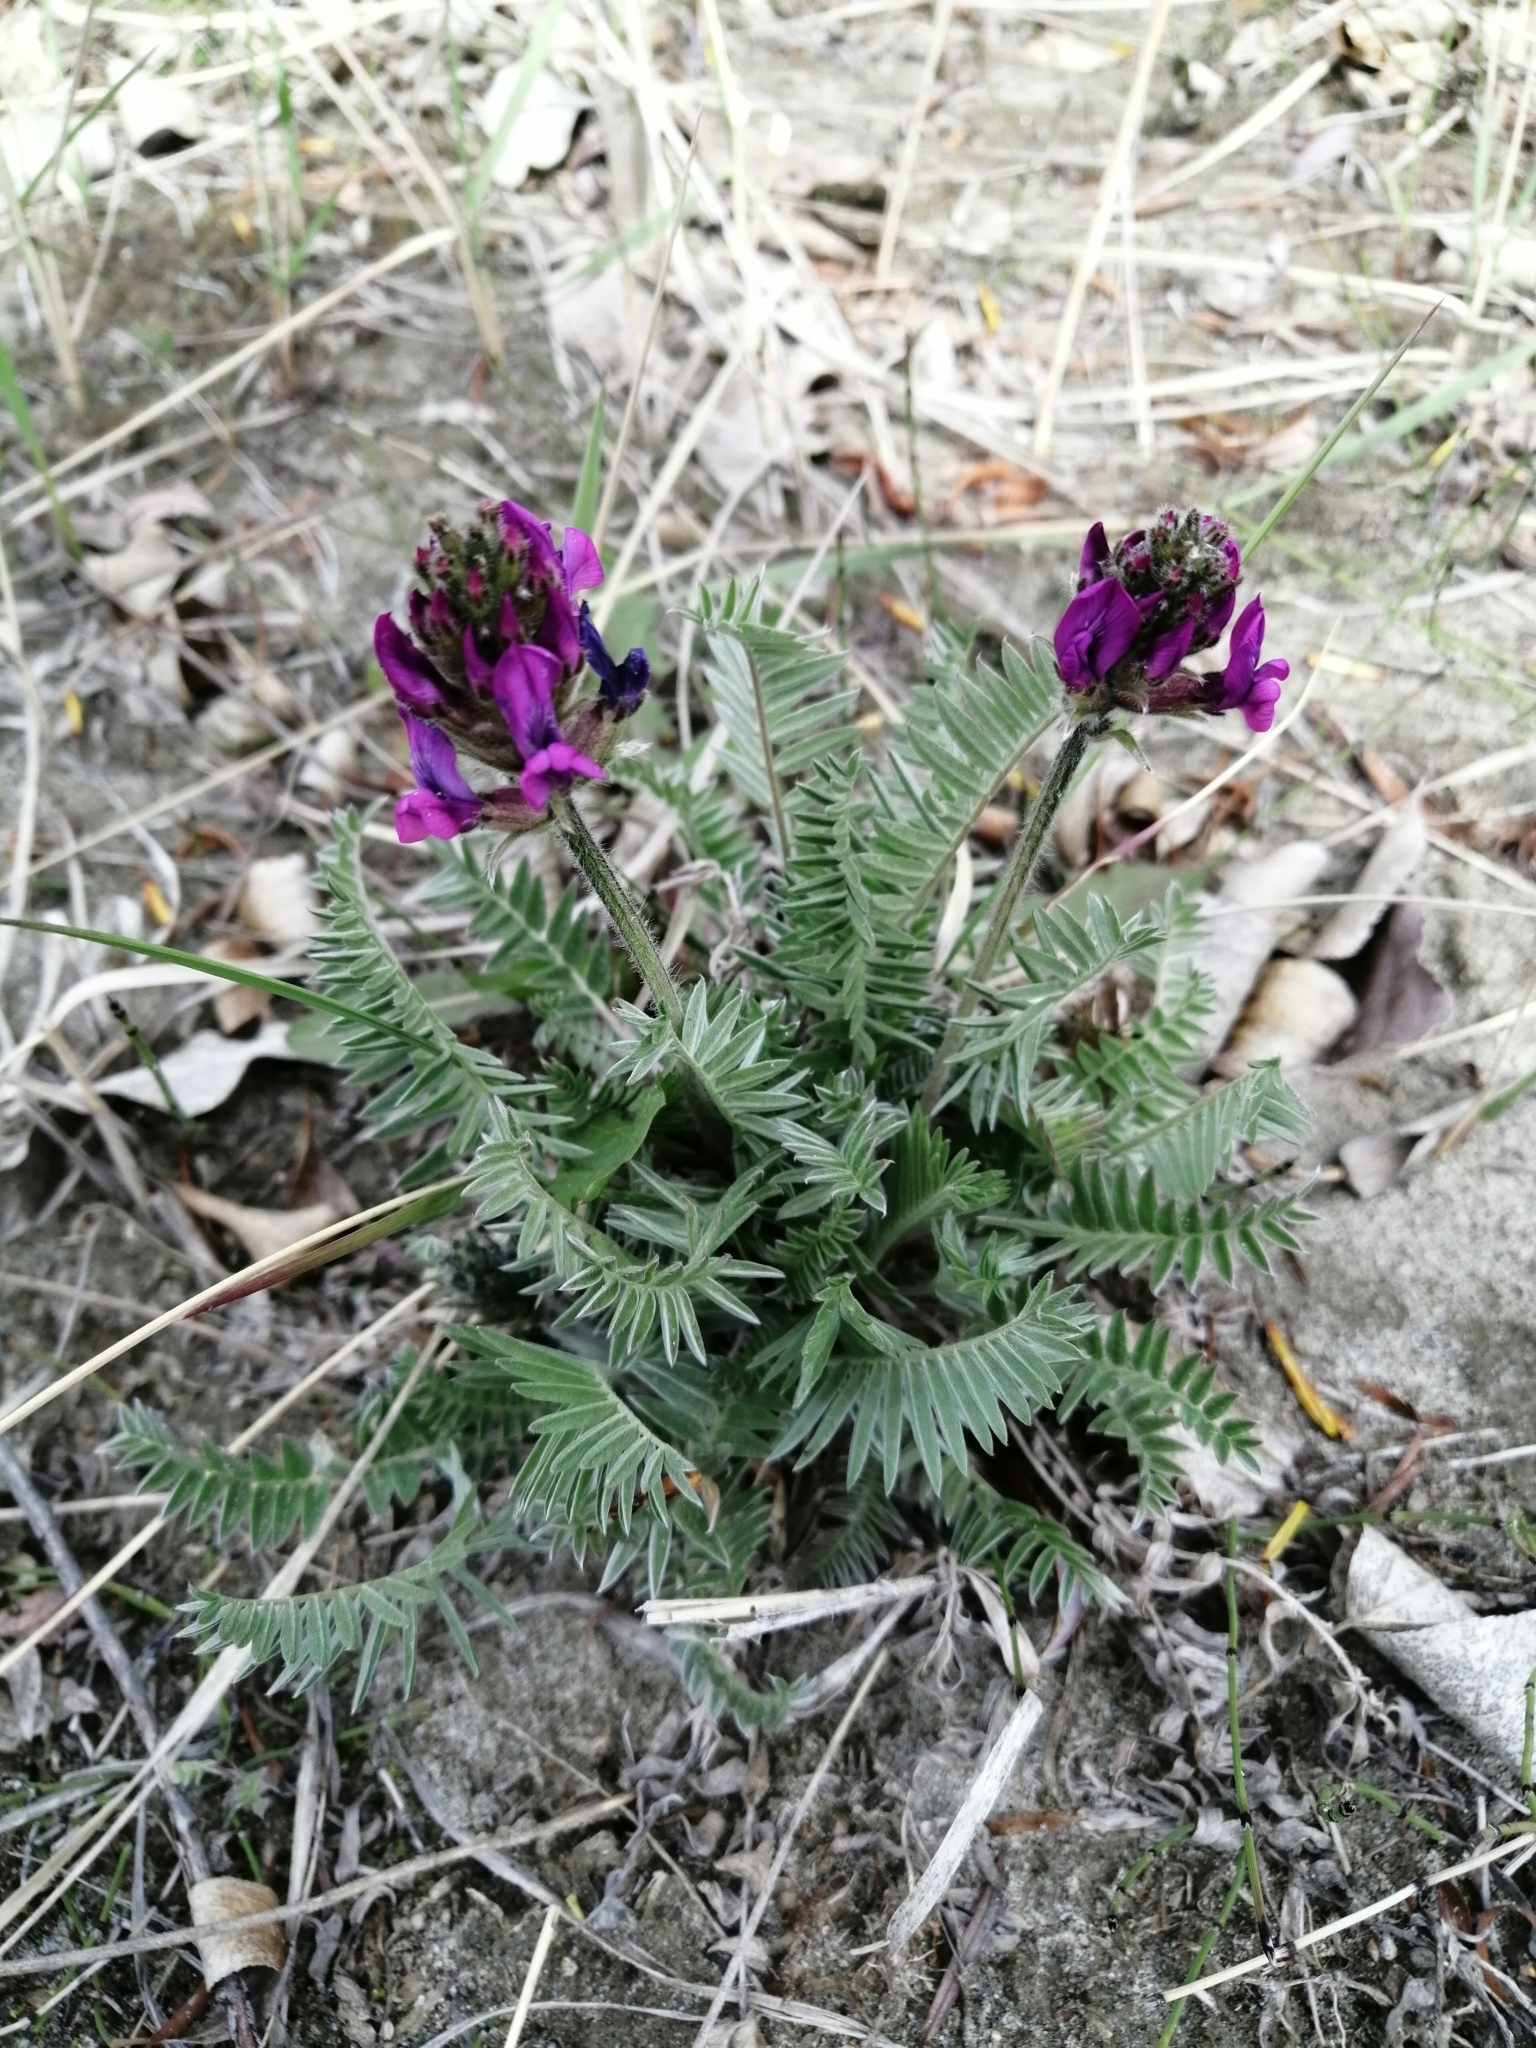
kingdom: Plantae
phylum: Tracheophyta
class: Magnoliopsida
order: Fabales
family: Fabaceae
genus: Oxytropis
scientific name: Oxytropis strobilacea
